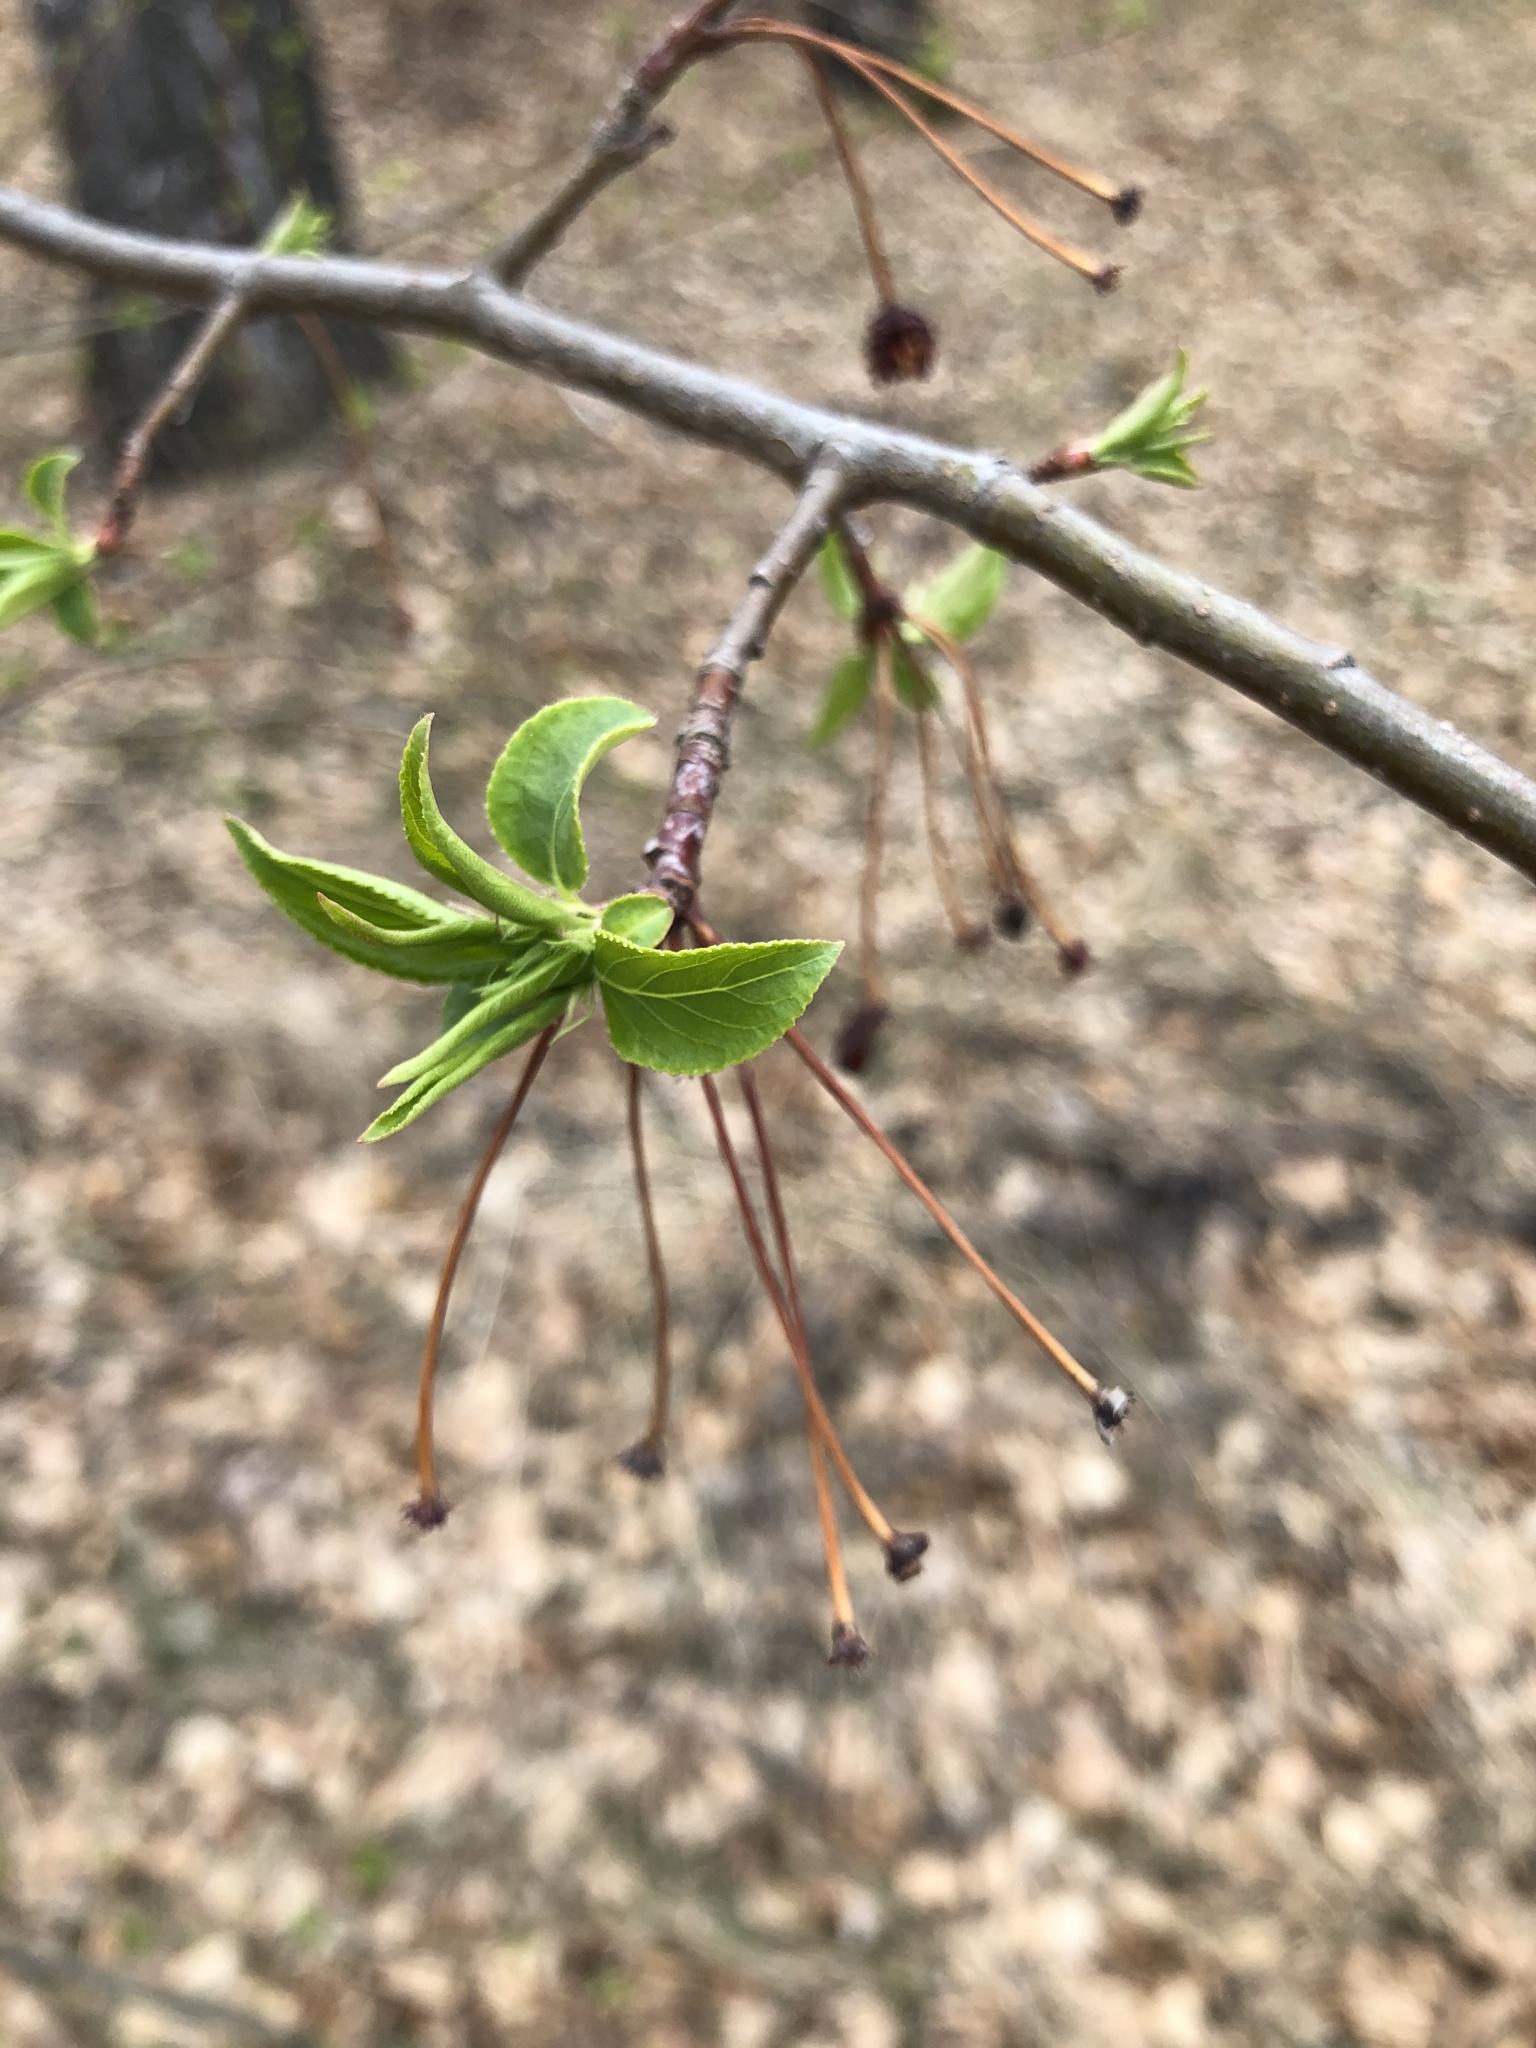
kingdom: Plantae
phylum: Tracheophyta
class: Magnoliopsida
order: Rosales
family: Rosaceae
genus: Malus
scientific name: Malus baccata
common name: Siberian crab
